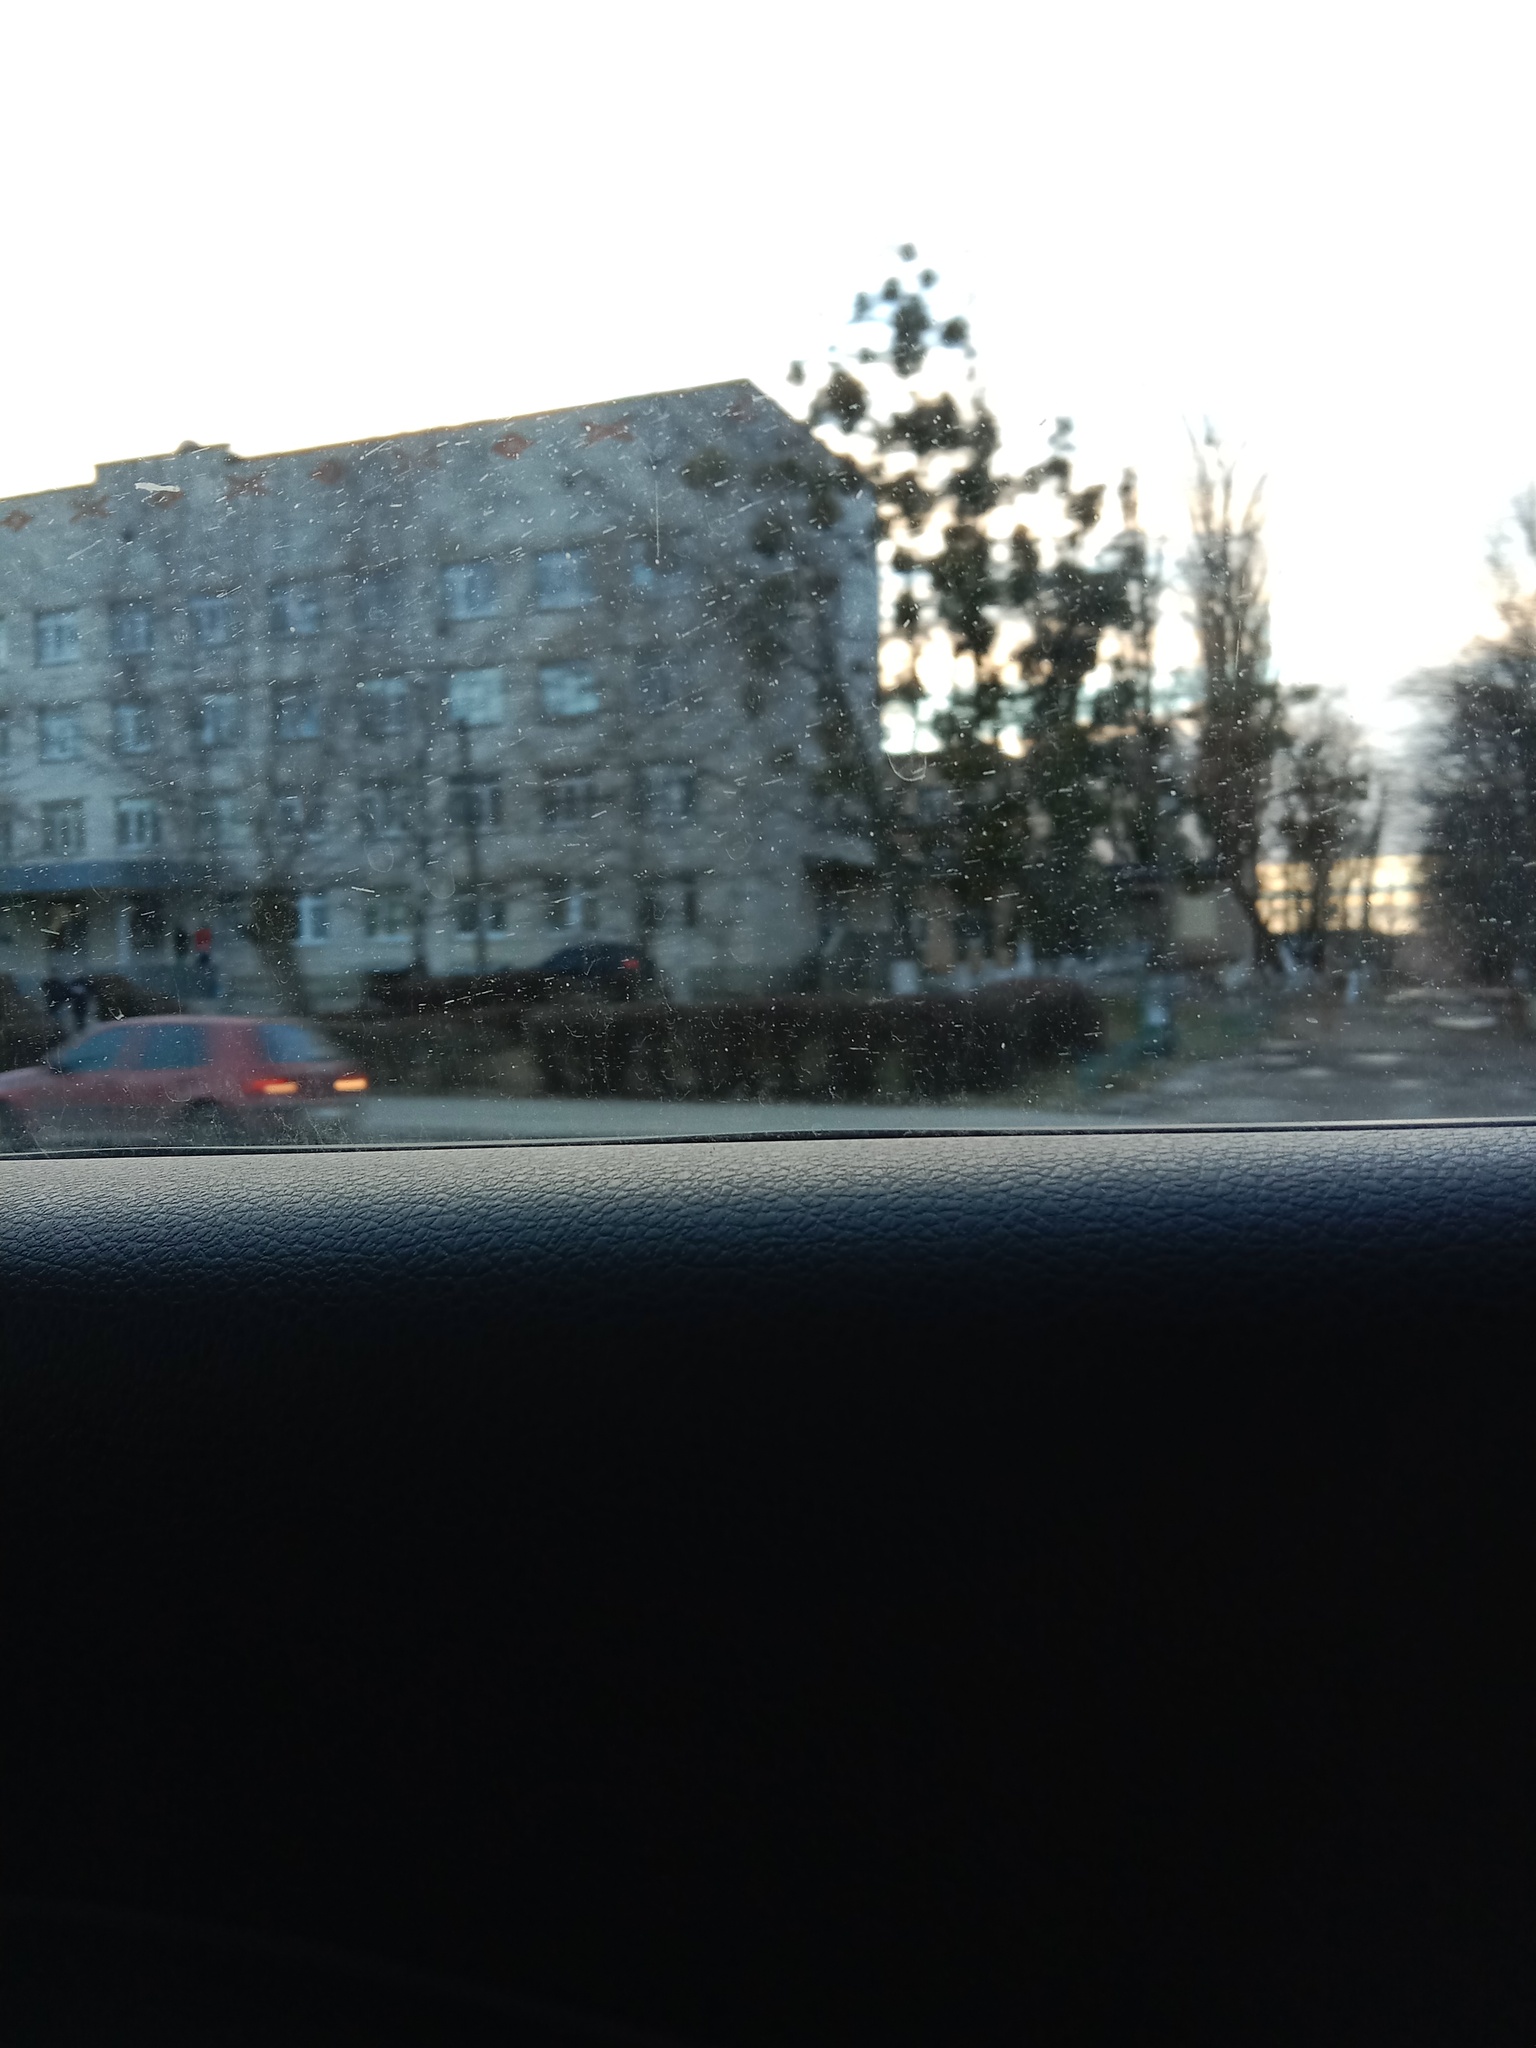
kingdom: Plantae
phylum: Tracheophyta
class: Magnoliopsida
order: Santalales
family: Viscaceae
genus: Viscum
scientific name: Viscum album
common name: Mistletoe
